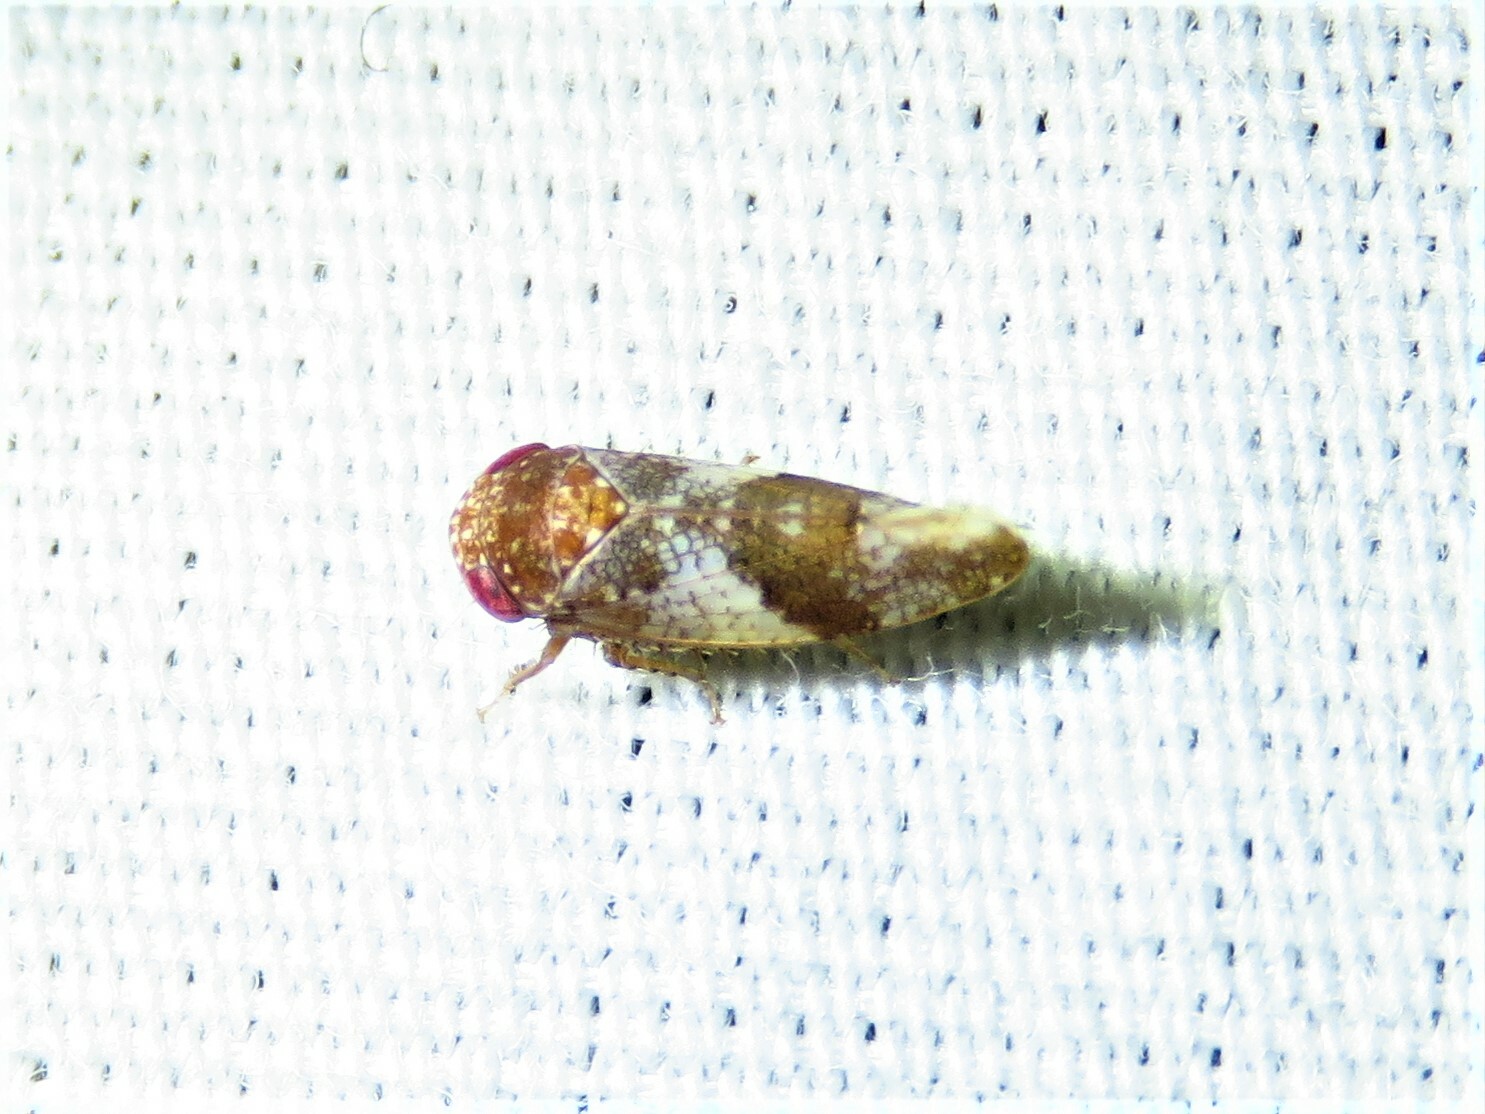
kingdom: Animalia
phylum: Arthropoda
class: Insecta
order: Hemiptera
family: Cicadellidae
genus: Norvellina
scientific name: Norvellina seminuda
